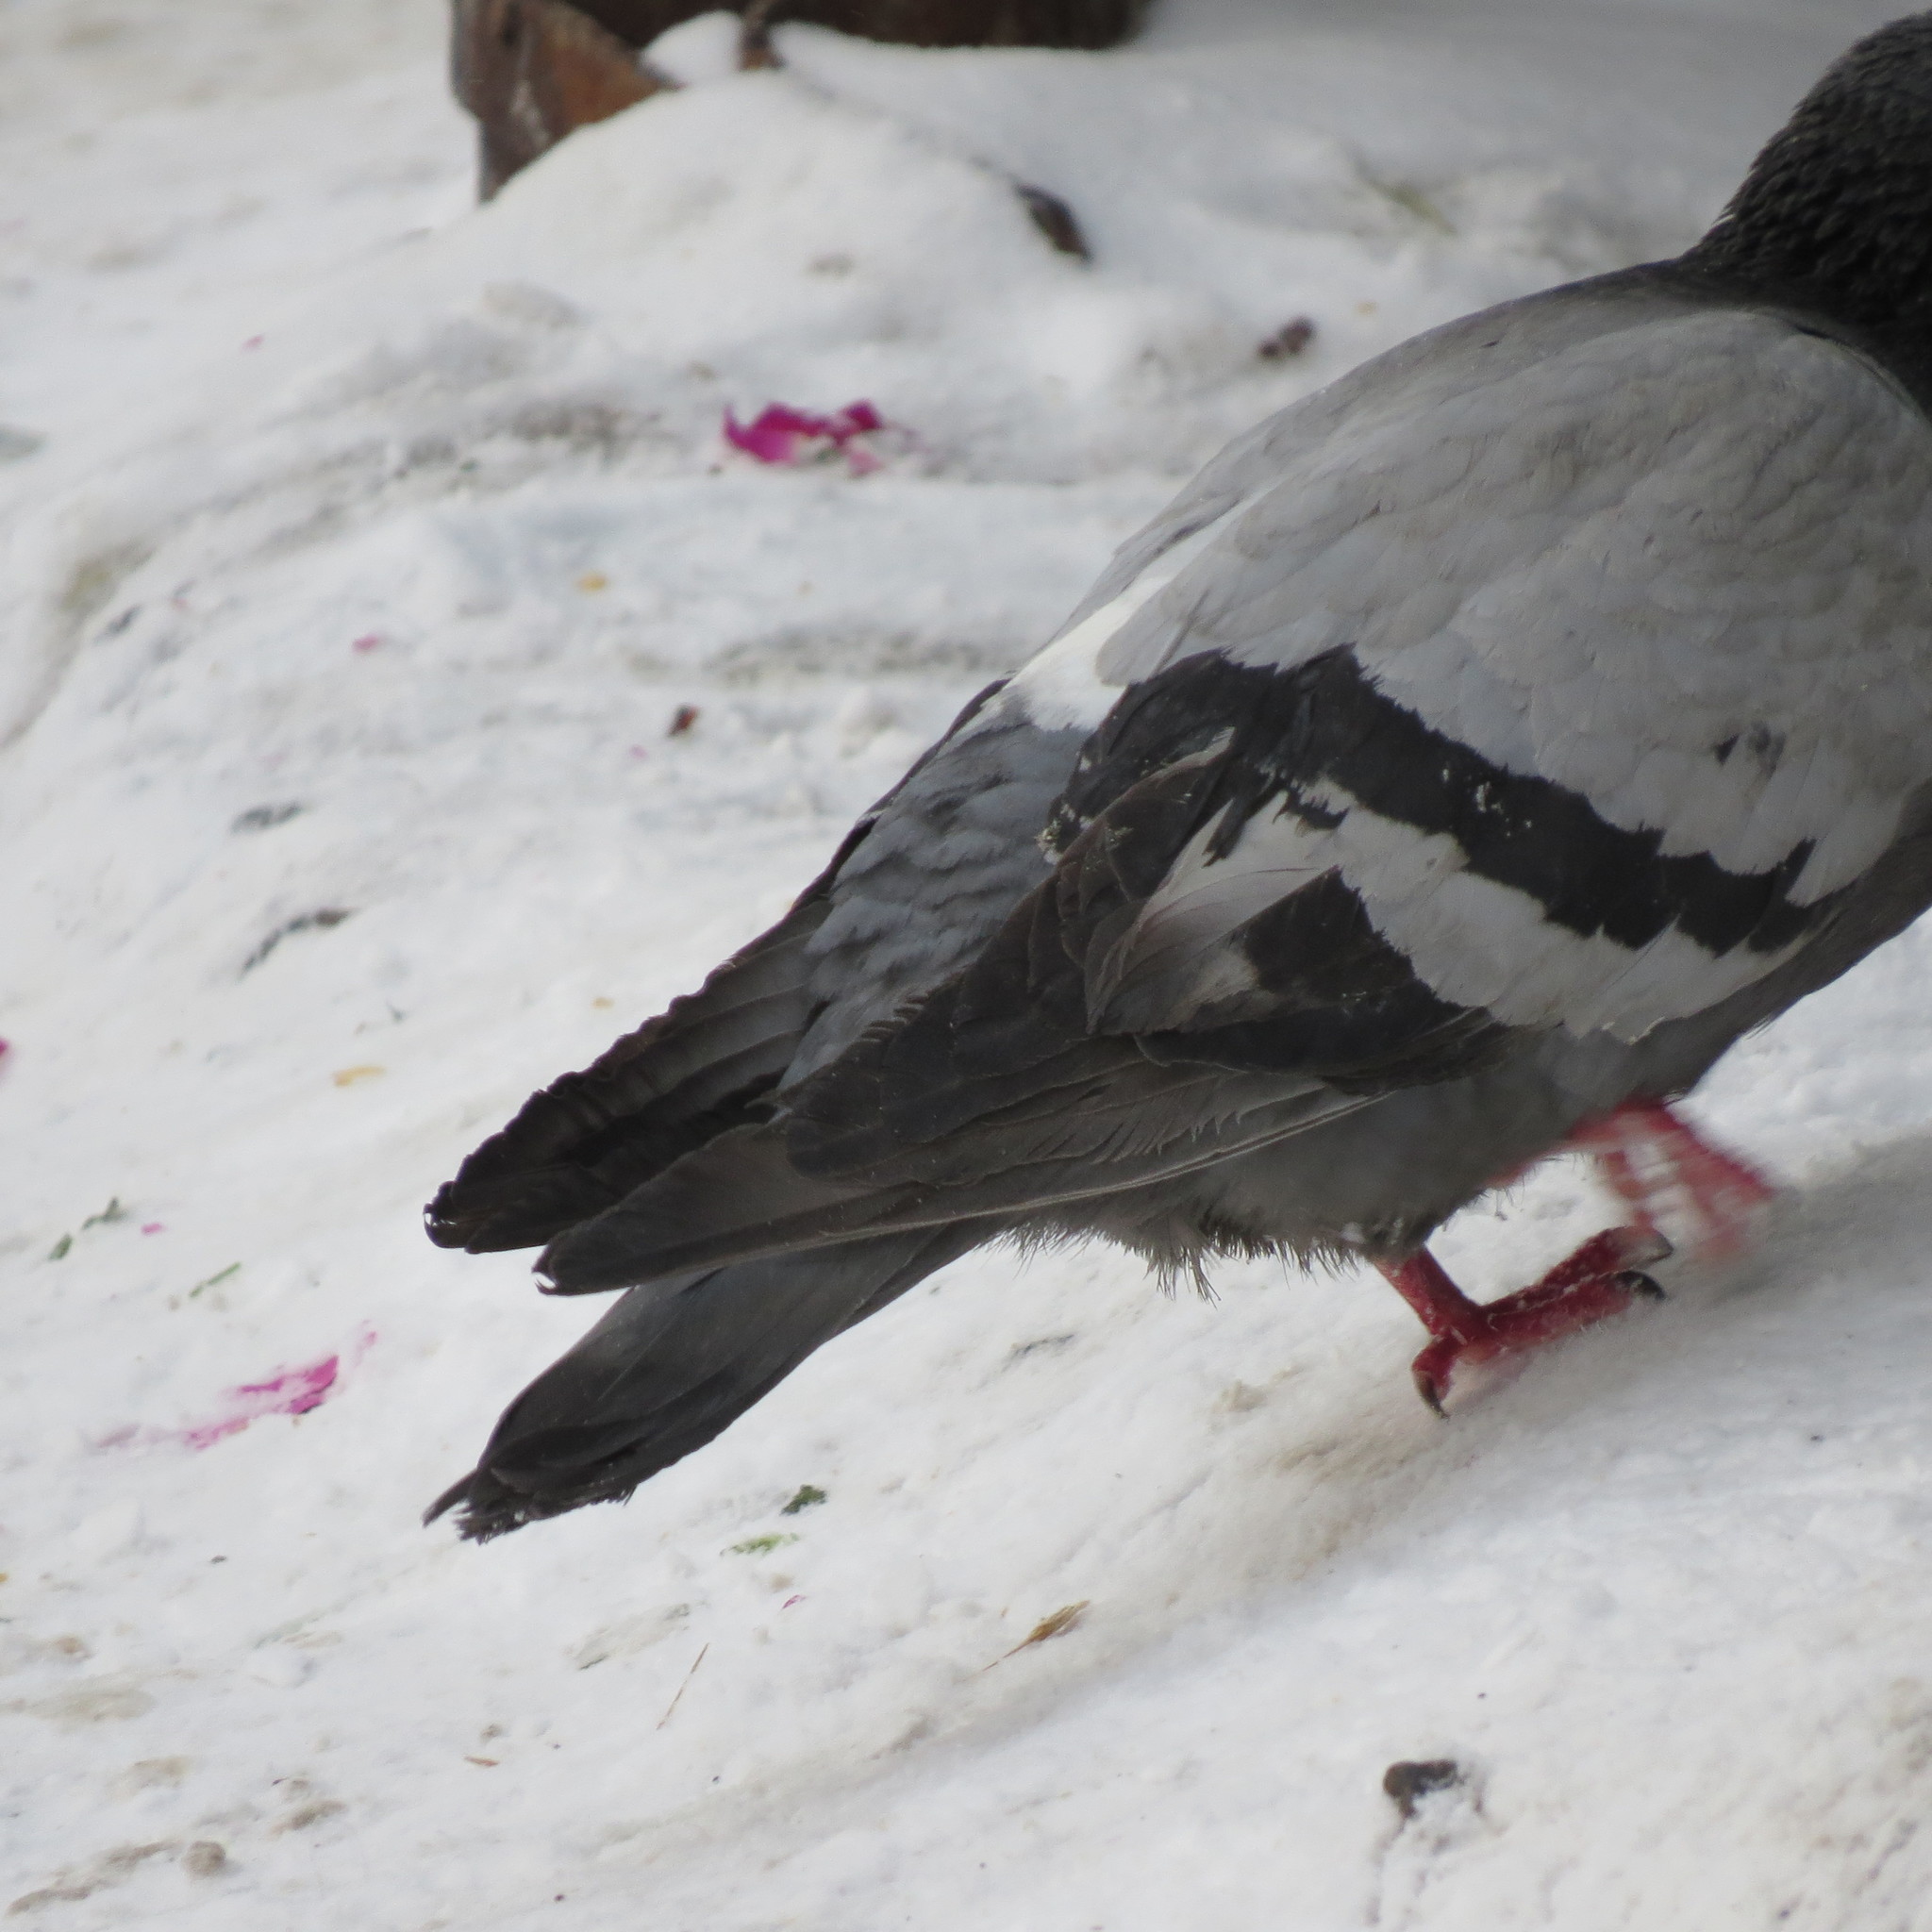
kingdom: Animalia
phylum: Chordata
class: Aves
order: Columbiformes
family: Columbidae
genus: Columba
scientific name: Columba livia
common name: Rock pigeon
